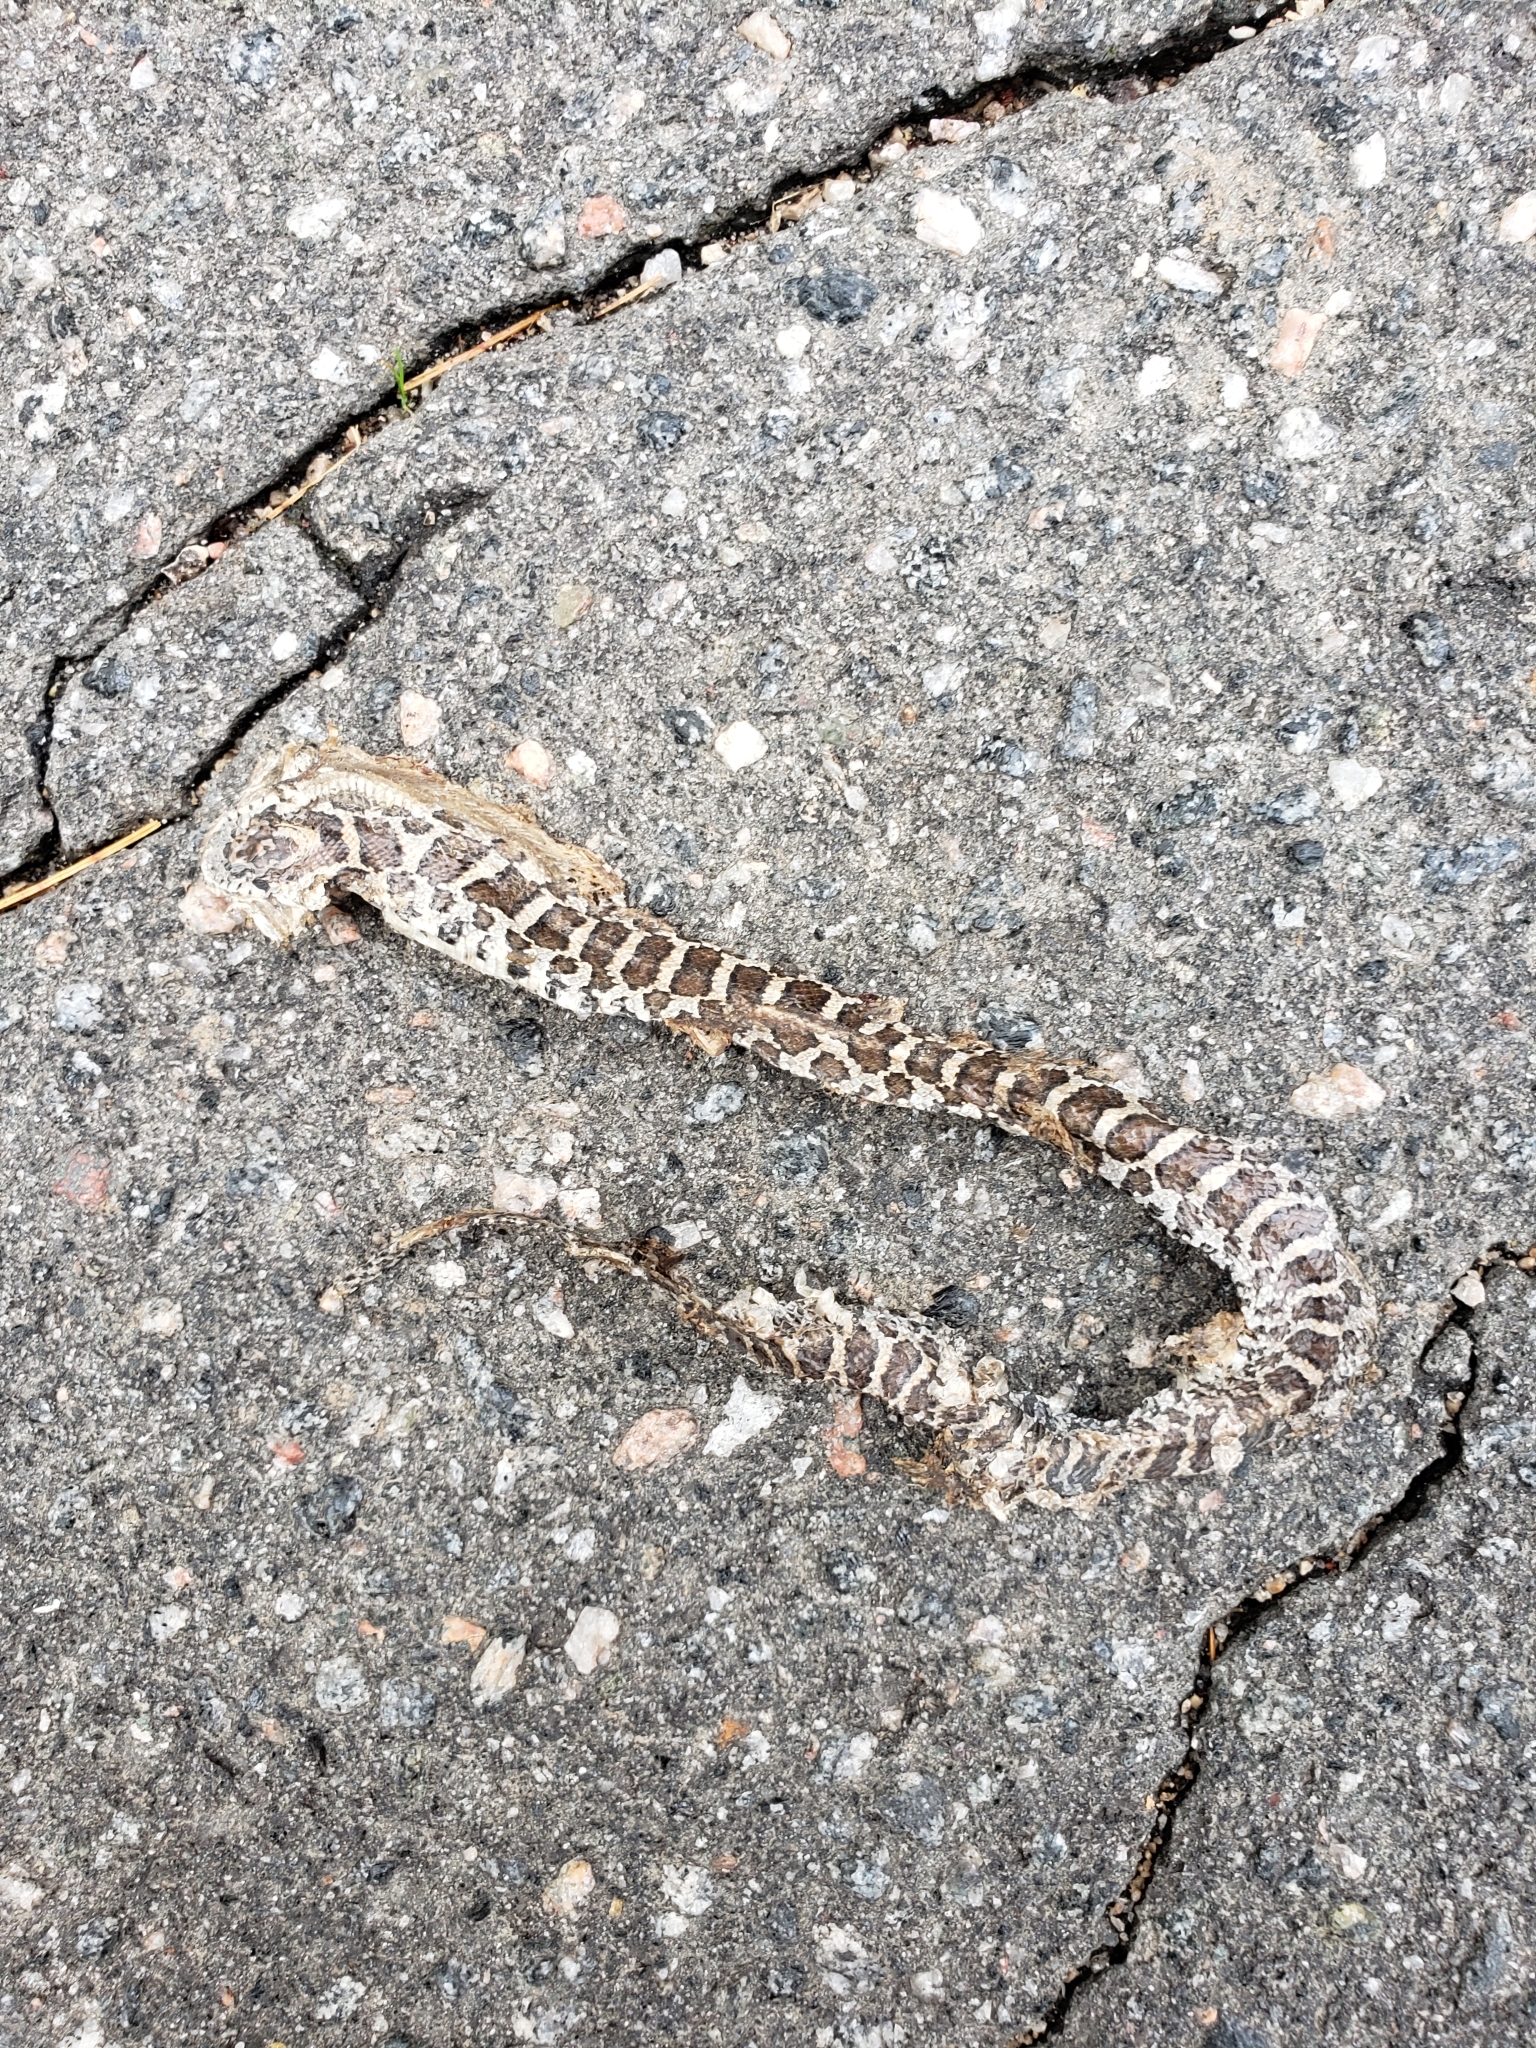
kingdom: Animalia
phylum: Chordata
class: Squamata
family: Colubridae
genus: Lampropeltis
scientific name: Lampropeltis triangulum
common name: Eastern milksnake
